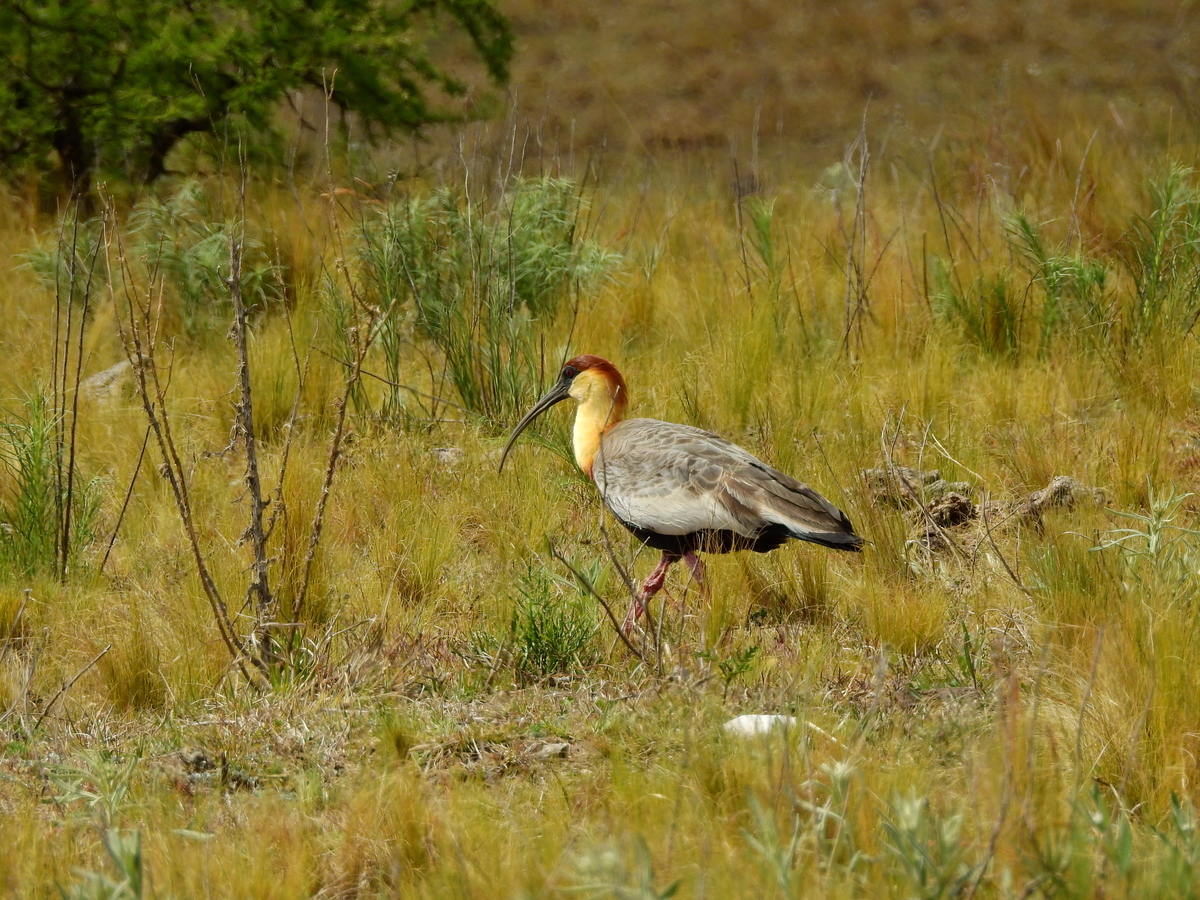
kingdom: Animalia
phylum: Chordata
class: Aves
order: Pelecaniformes
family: Threskiornithidae
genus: Theristicus
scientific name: Theristicus melanopis
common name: Black-faced ibis
